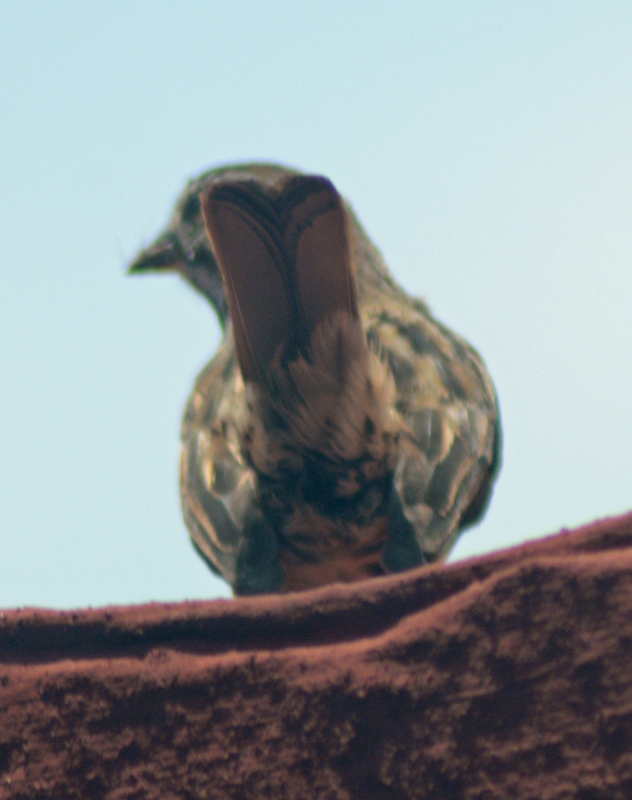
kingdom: Animalia
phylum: Chordata
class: Aves
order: Passeriformes
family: Passerellidae
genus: Melospiza
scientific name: Melospiza melodia
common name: Song sparrow
